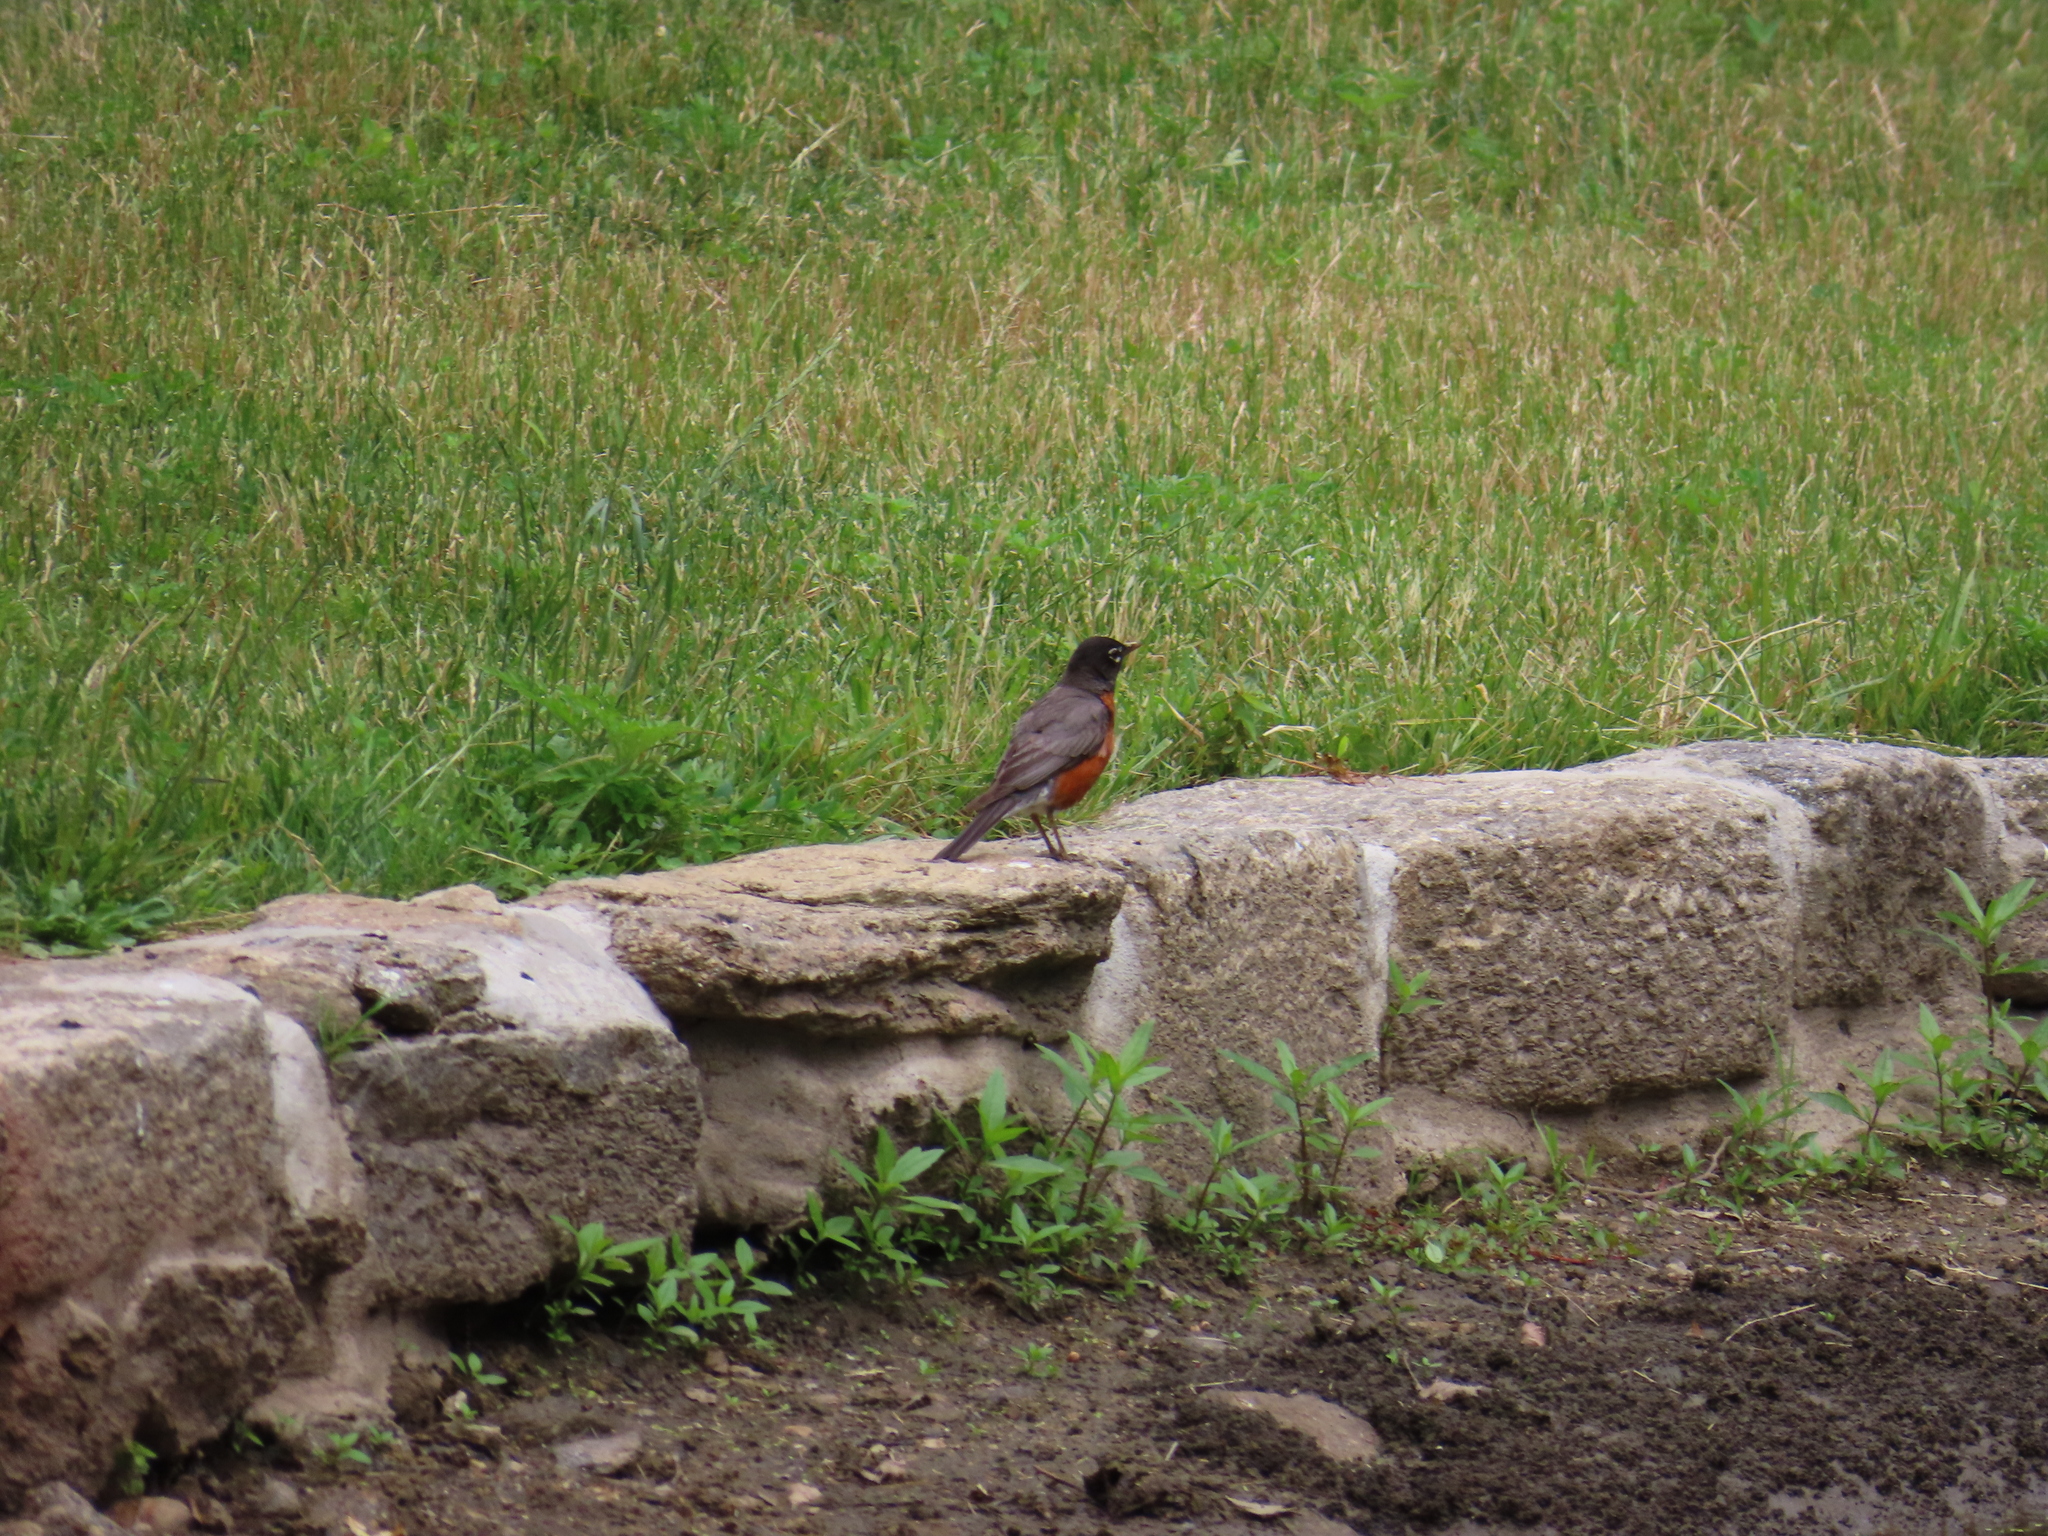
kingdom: Animalia
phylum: Chordata
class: Aves
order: Passeriformes
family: Turdidae
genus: Turdus
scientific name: Turdus migratorius
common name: American robin
